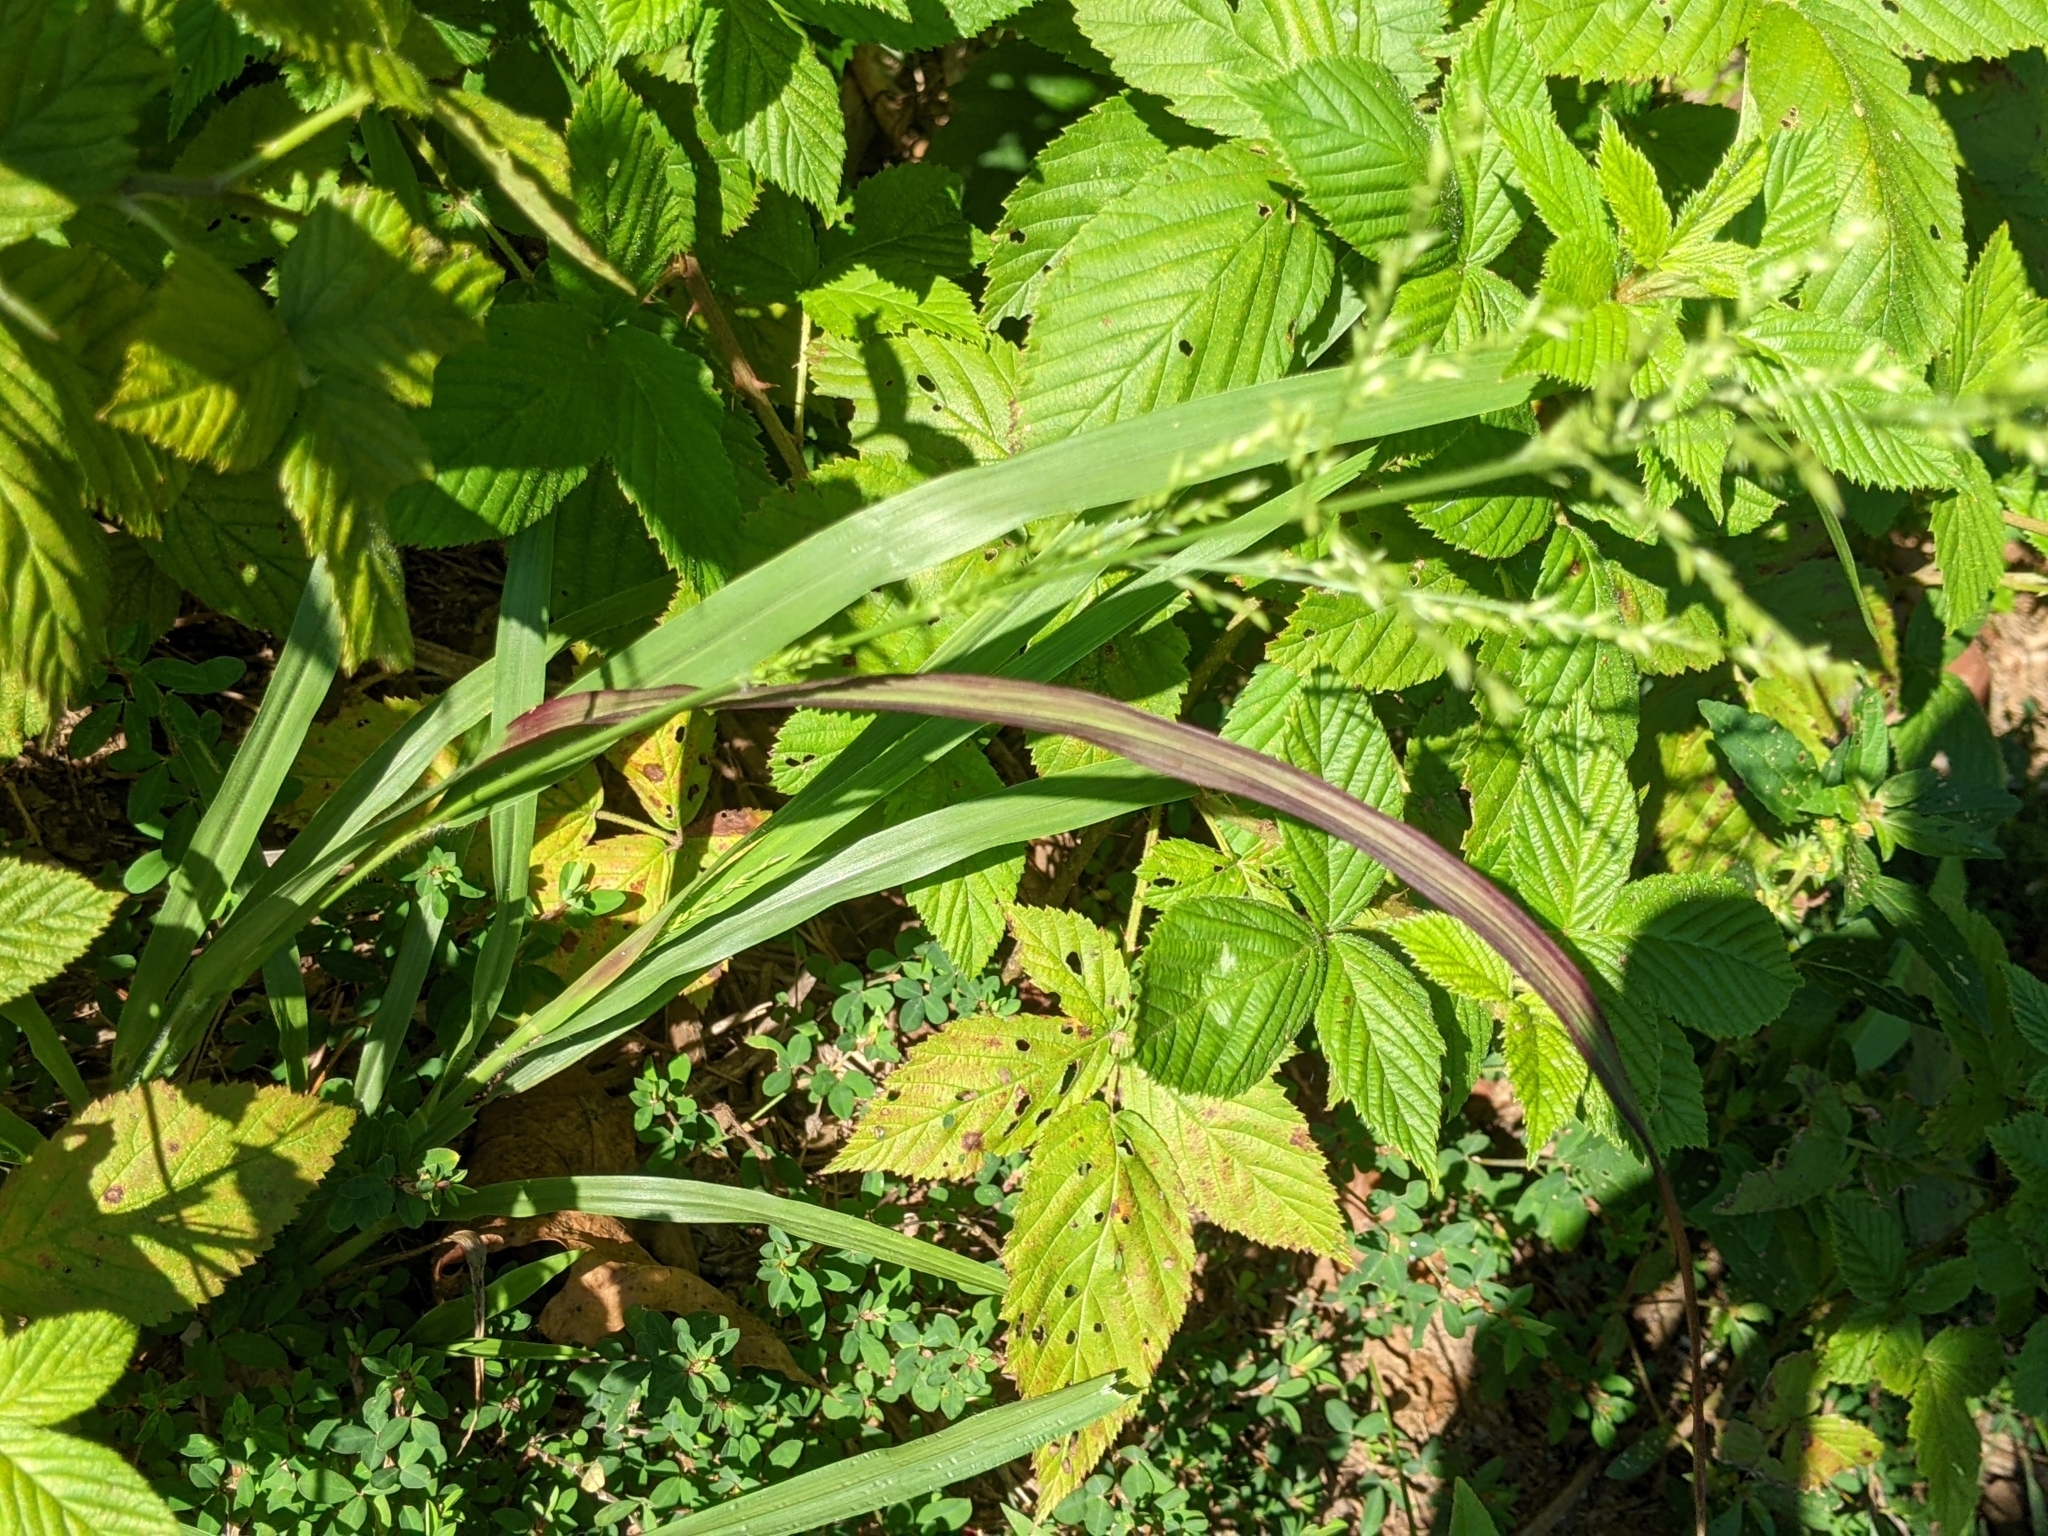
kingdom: Plantae
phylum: Tracheophyta
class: Liliopsida
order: Poales
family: Poaceae
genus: Coleataenia
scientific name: Coleataenia anceps
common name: Beaked panic grass
